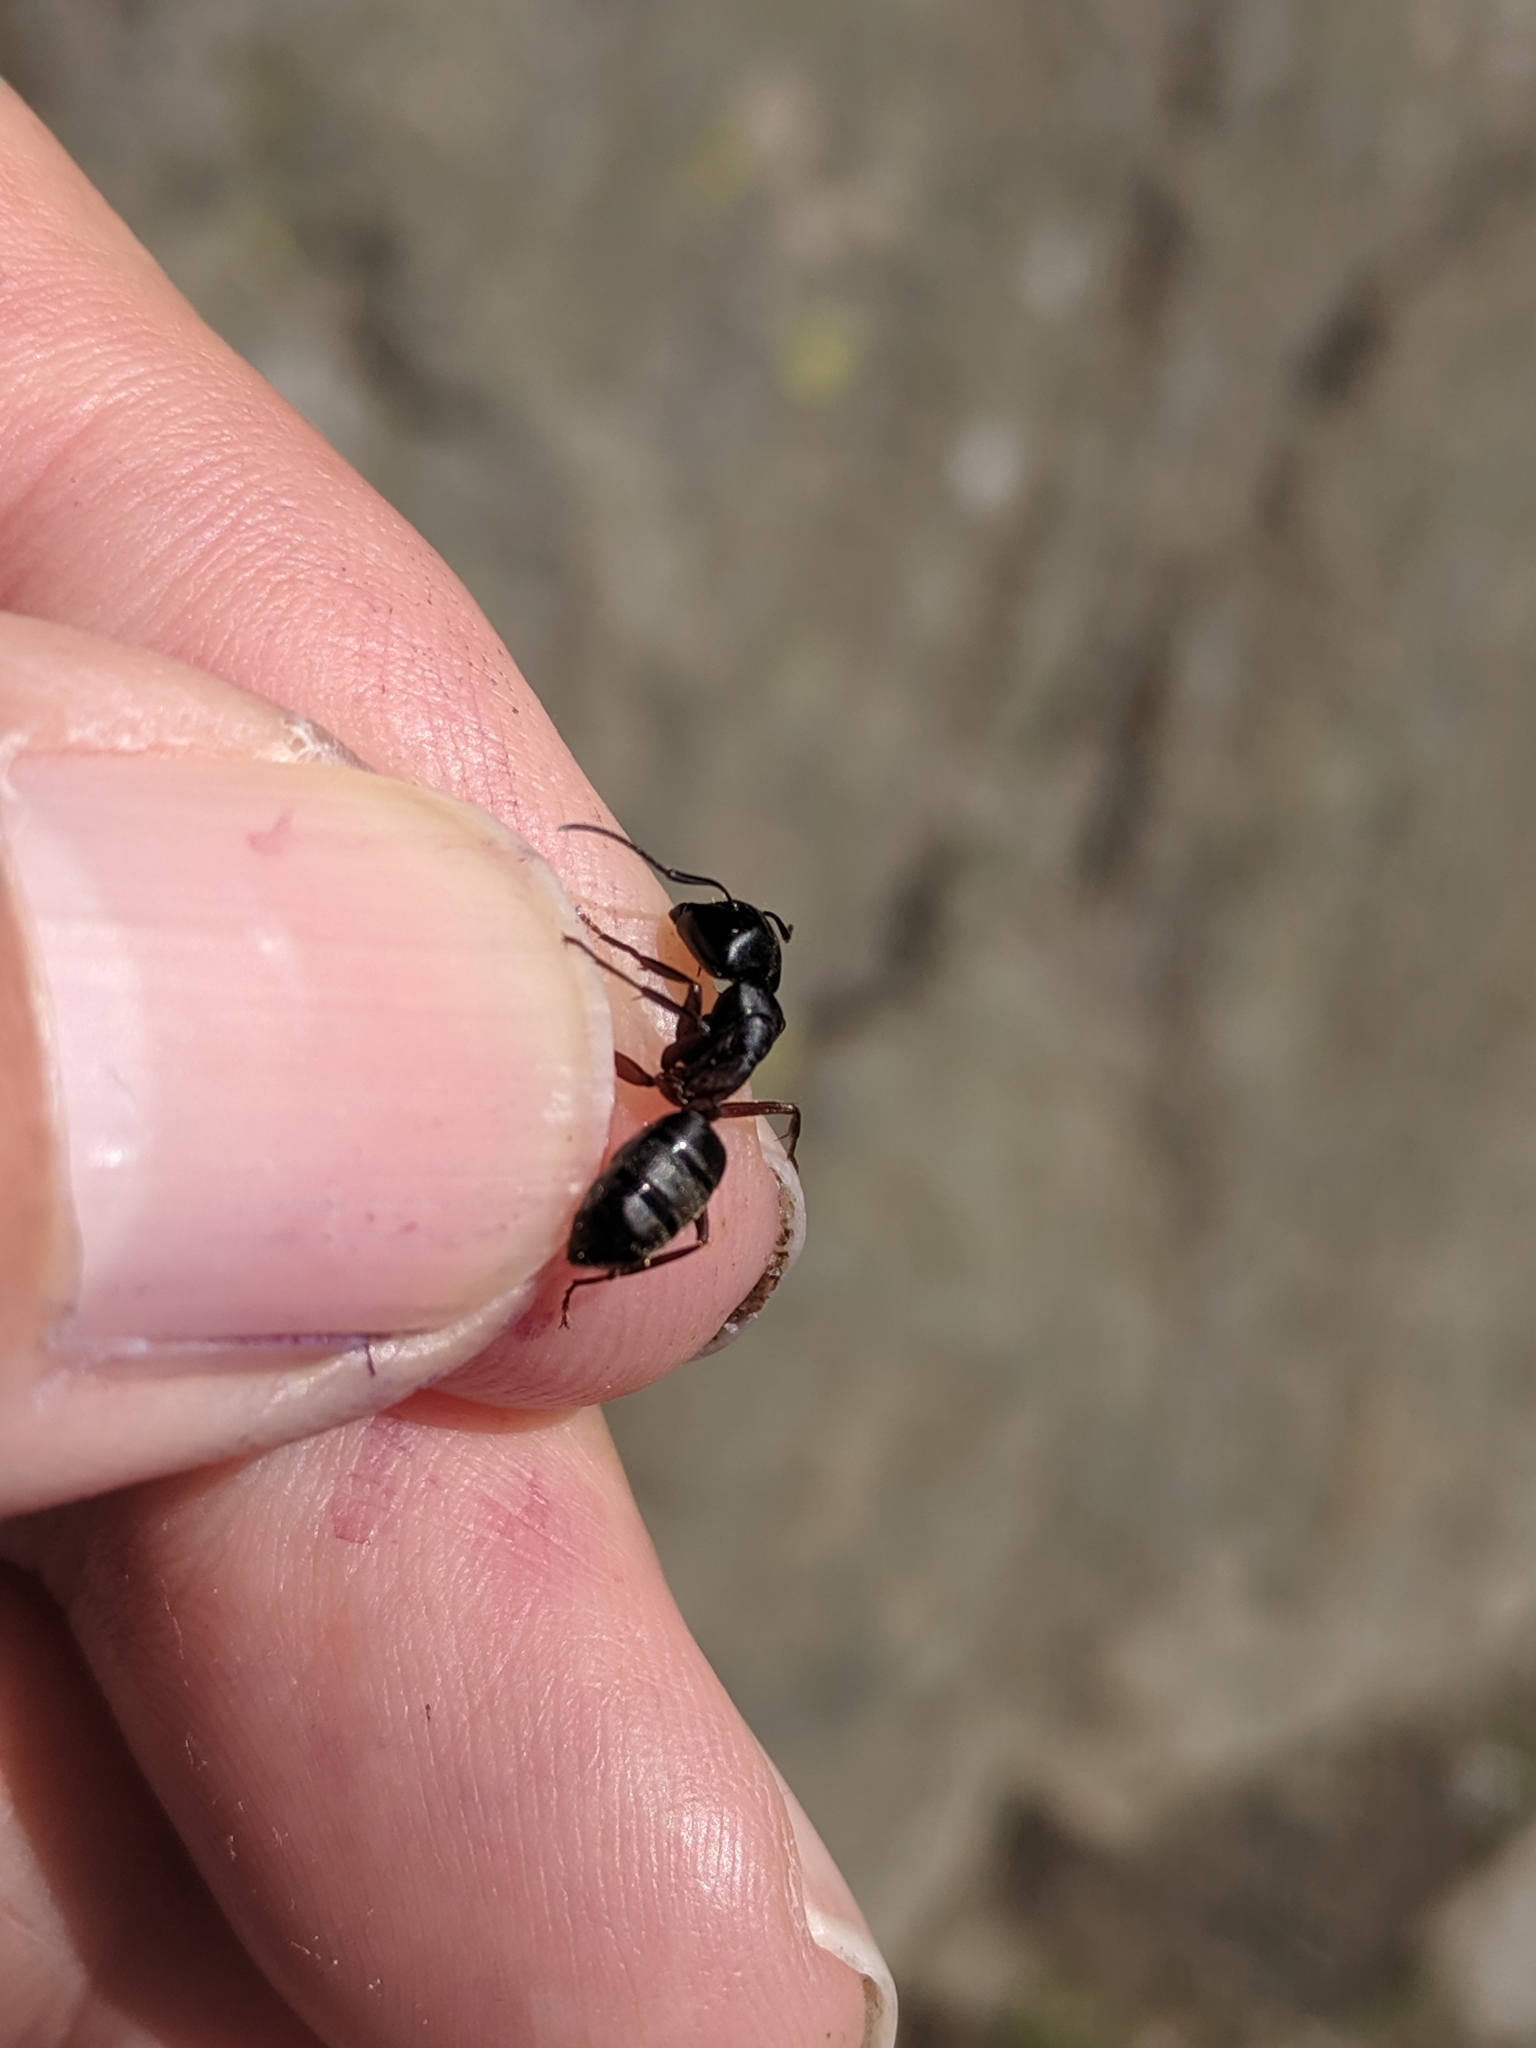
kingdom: Animalia
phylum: Arthropoda
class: Insecta
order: Hymenoptera
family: Formicidae
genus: Camponotus
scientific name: Camponotus herculeanus
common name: Hercules ant
